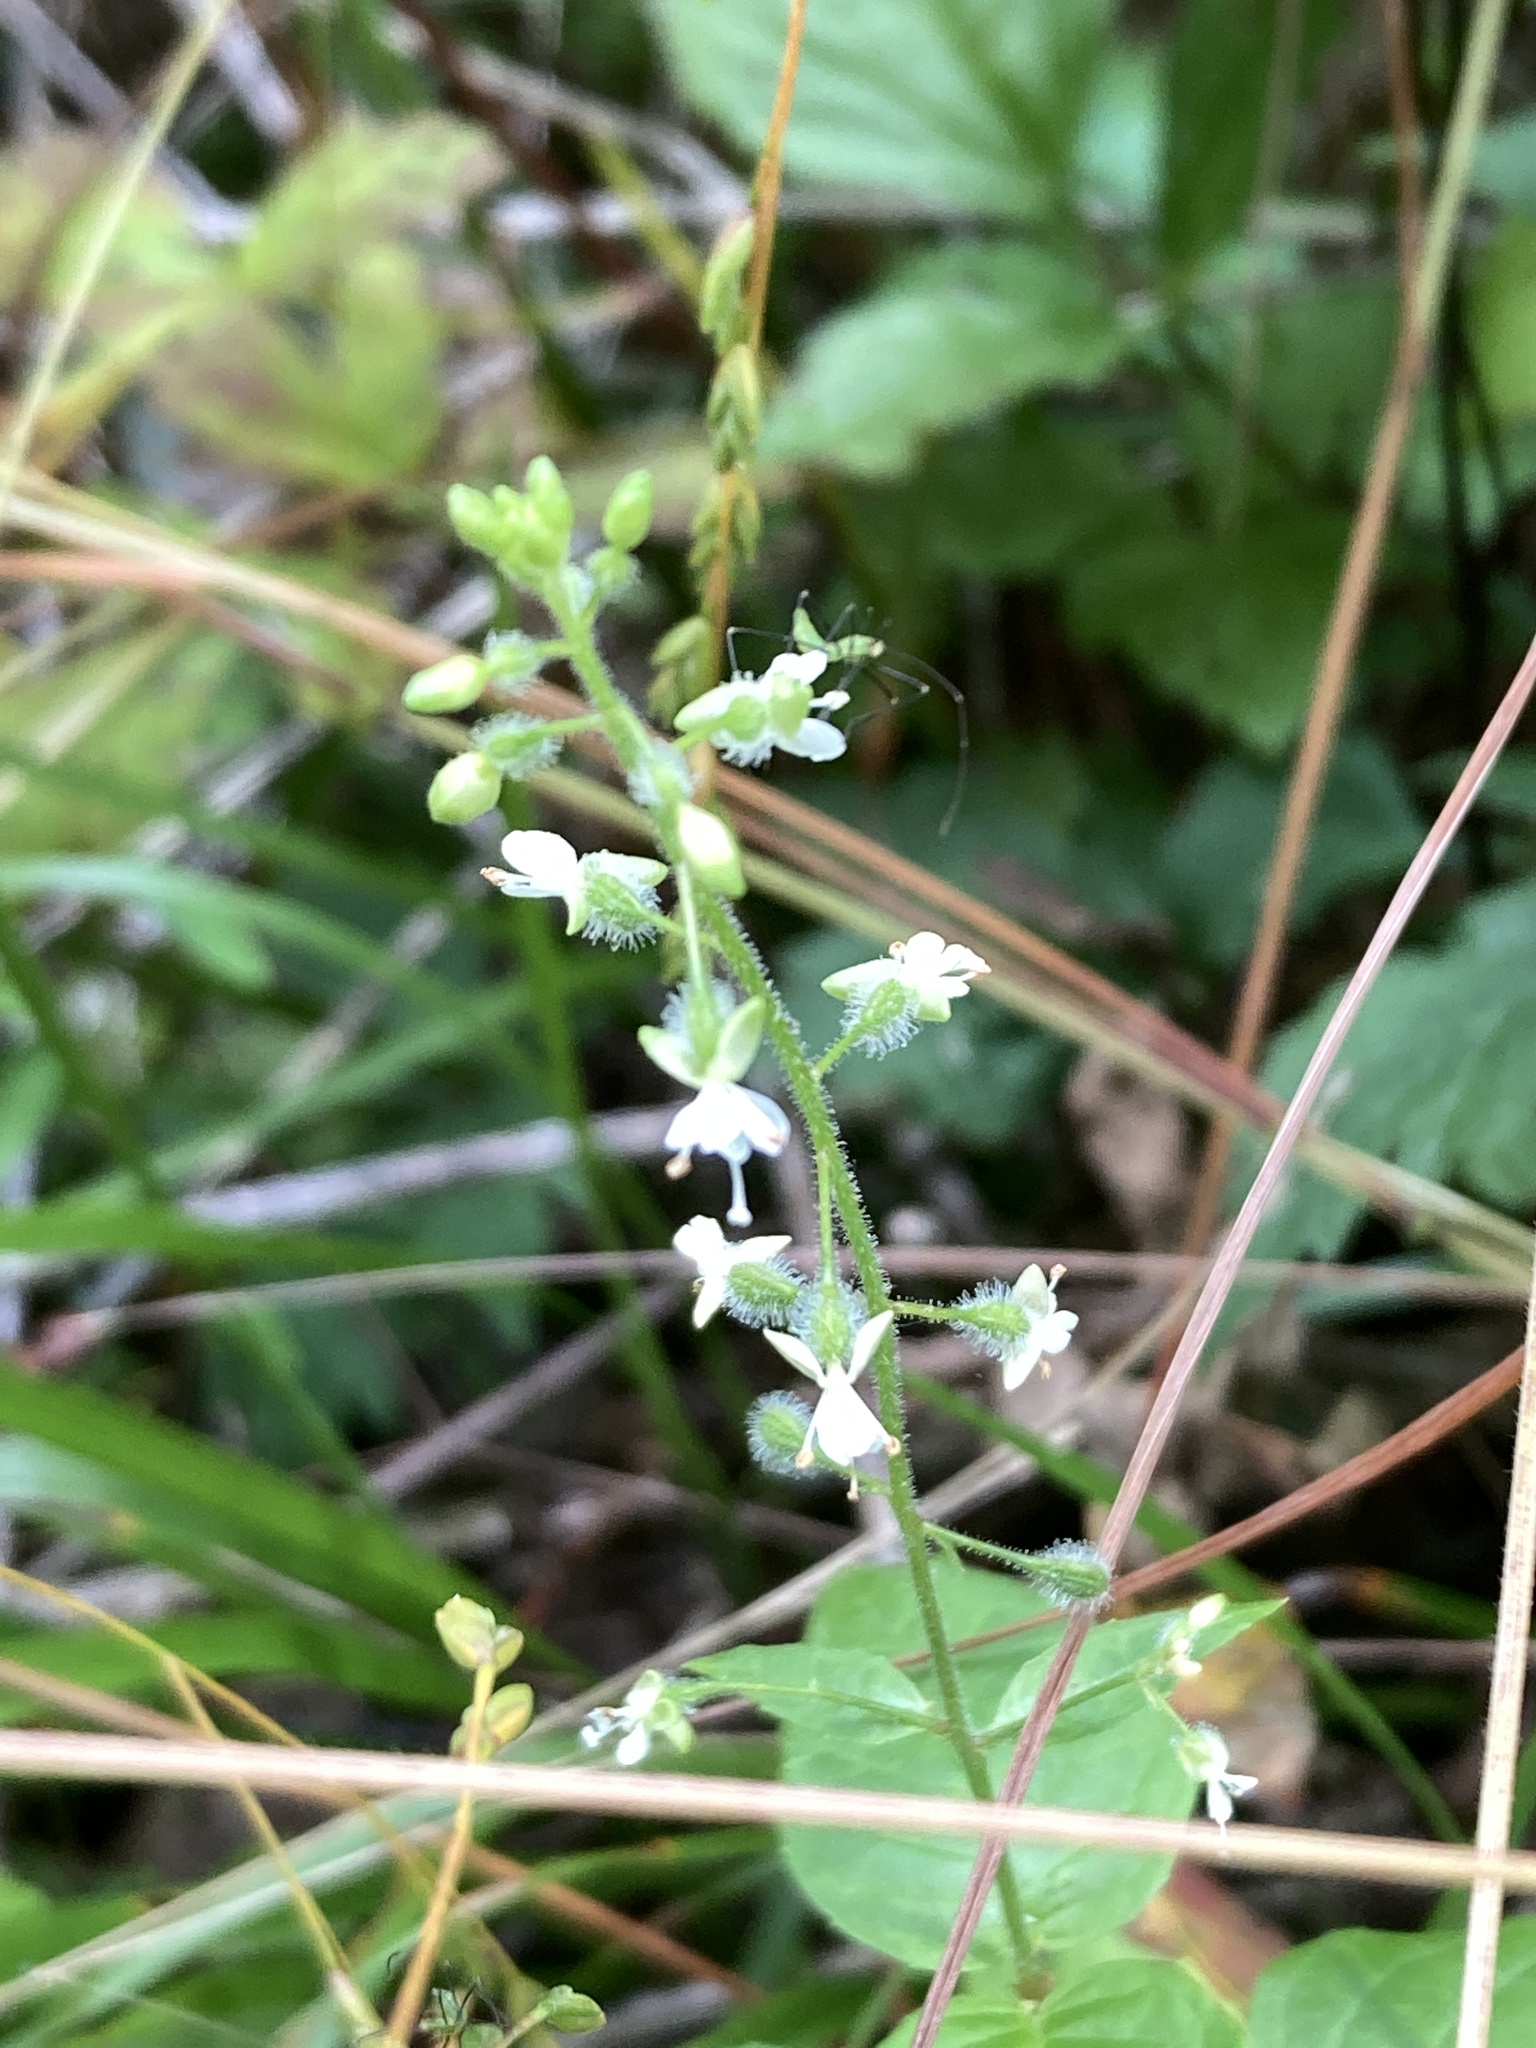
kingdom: Plantae
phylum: Tracheophyta
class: Magnoliopsida
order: Myrtales
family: Onagraceae
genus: Circaea
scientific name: Circaea canadensis
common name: Broad-leaved enchanter's nightshade
